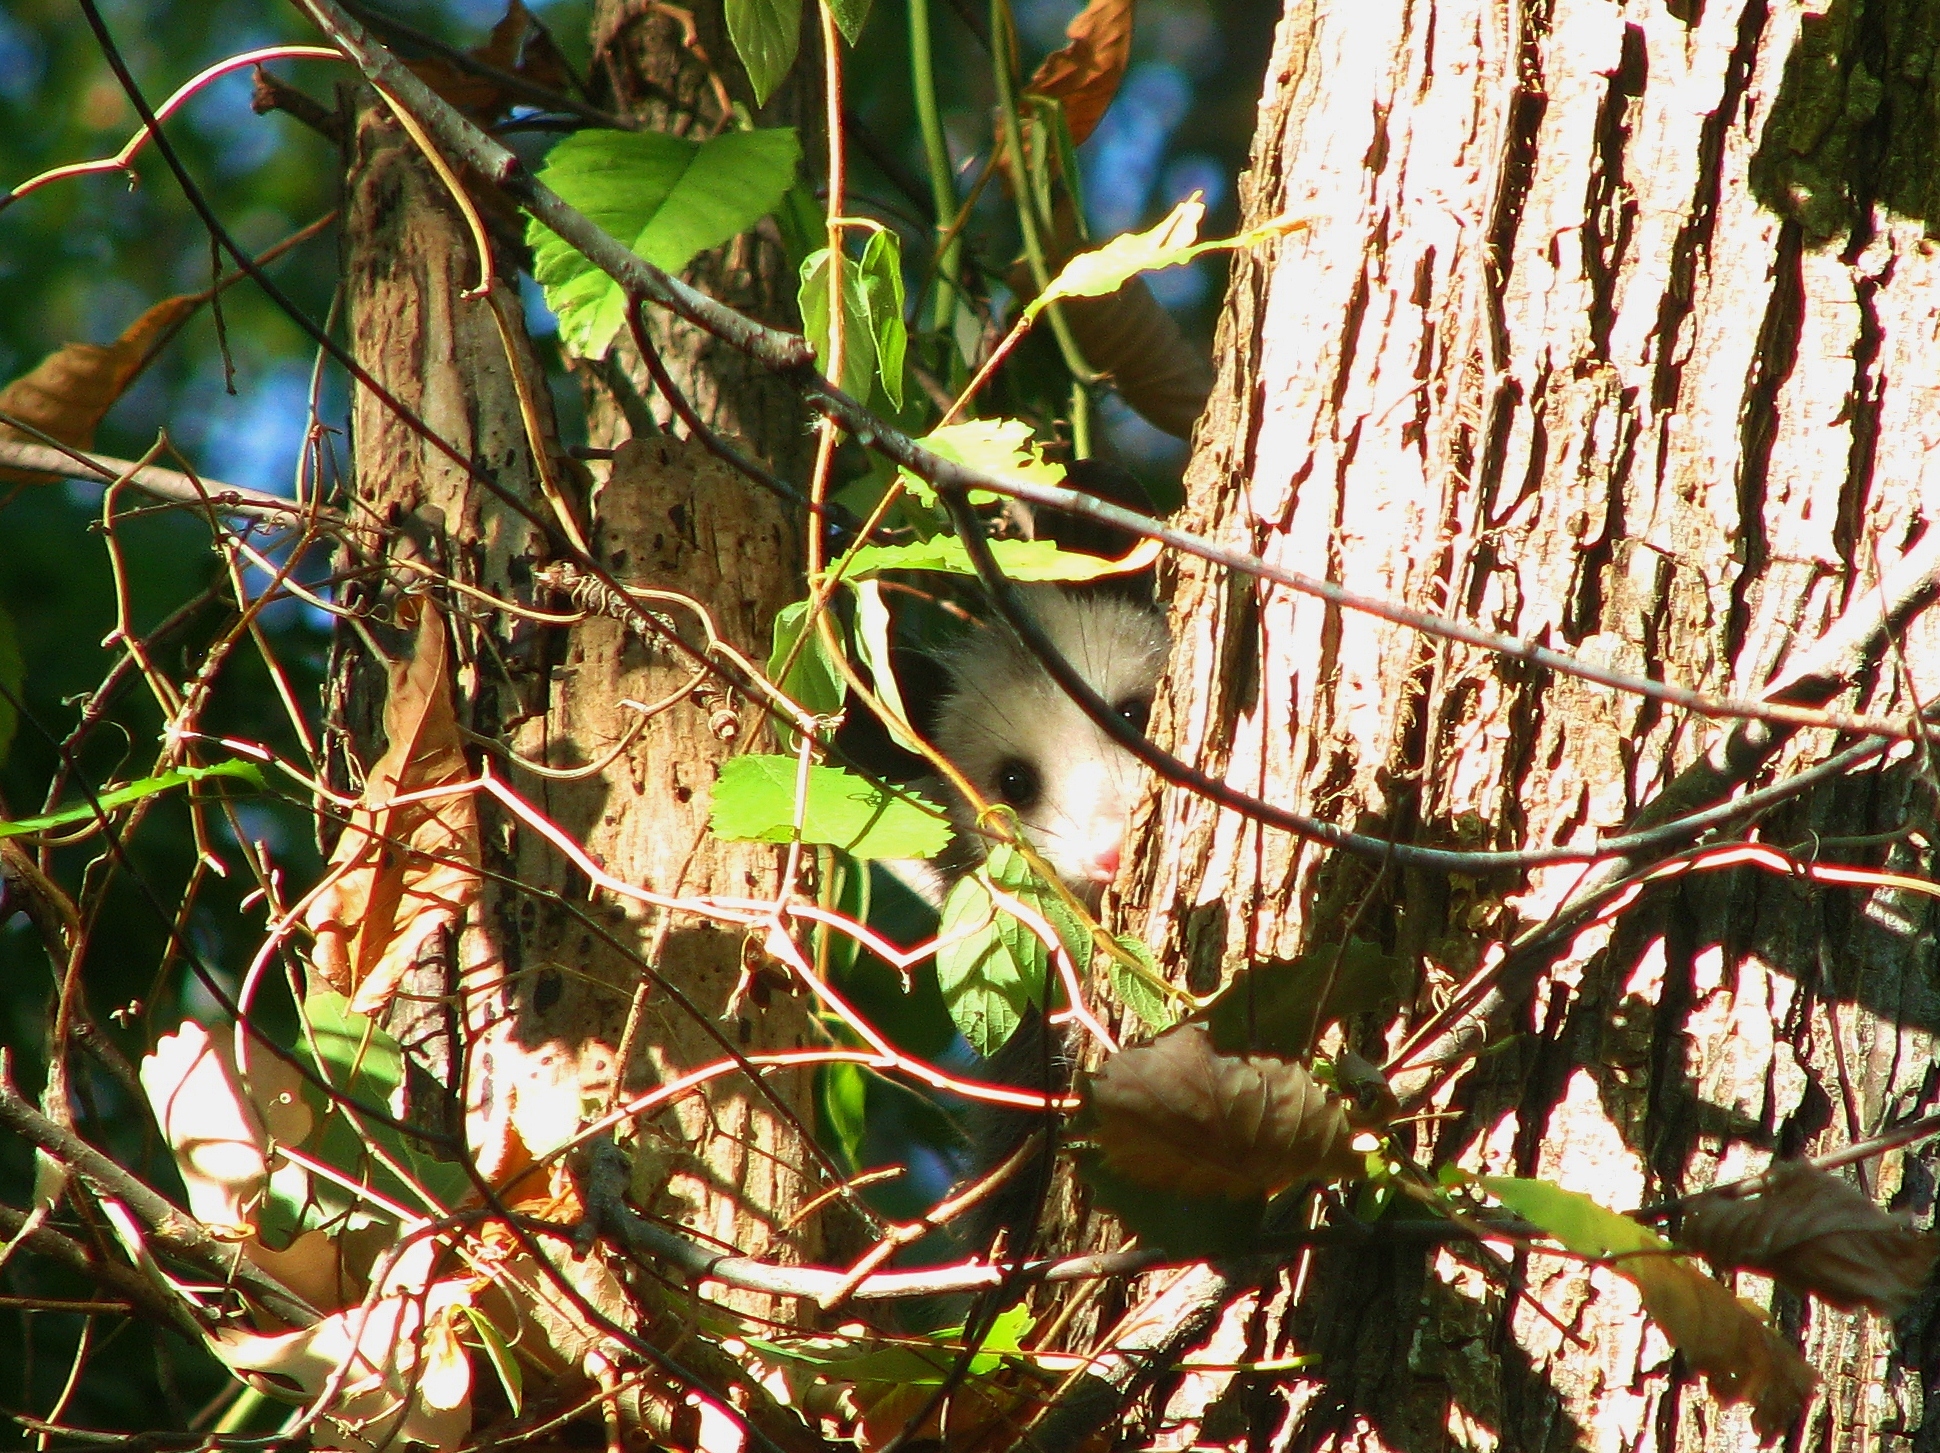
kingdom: Animalia
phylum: Chordata
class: Mammalia
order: Didelphimorphia
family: Didelphidae
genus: Didelphis
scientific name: Didelphis virginiana
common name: Virginia opossum
